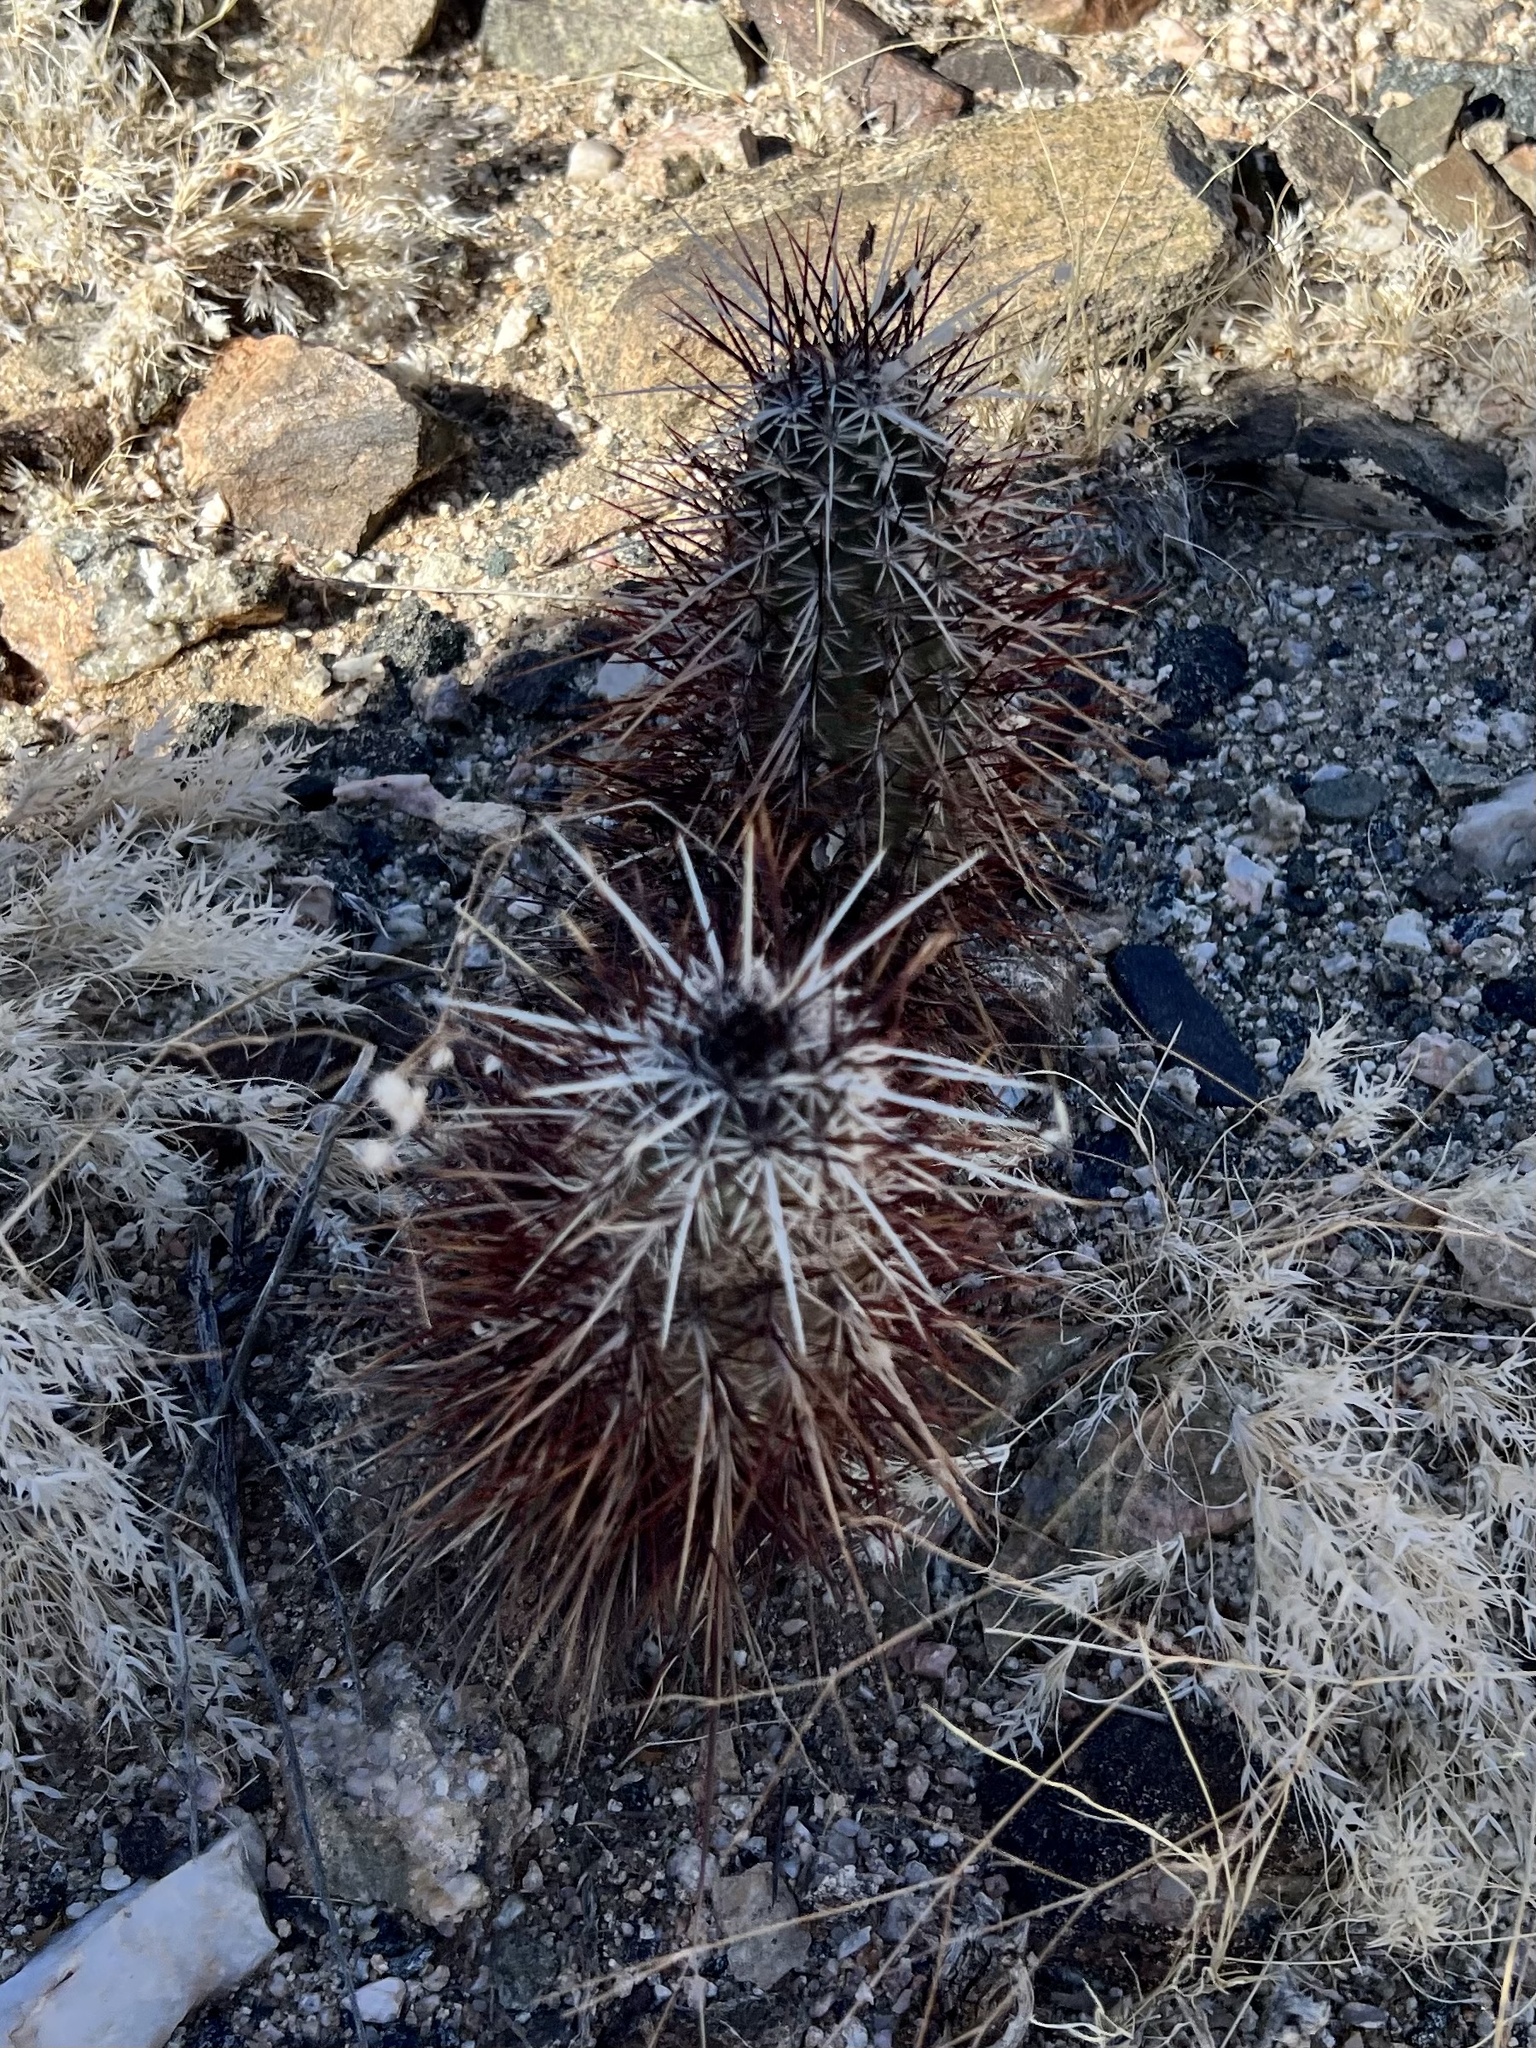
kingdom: Plantae
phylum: Tracheophyta
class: Magnoliopsida
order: Caryophyllales
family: Cactaceae
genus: Echinocereus
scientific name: Echinocereus engelmannii
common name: Engelmann's hedgehog cactus
